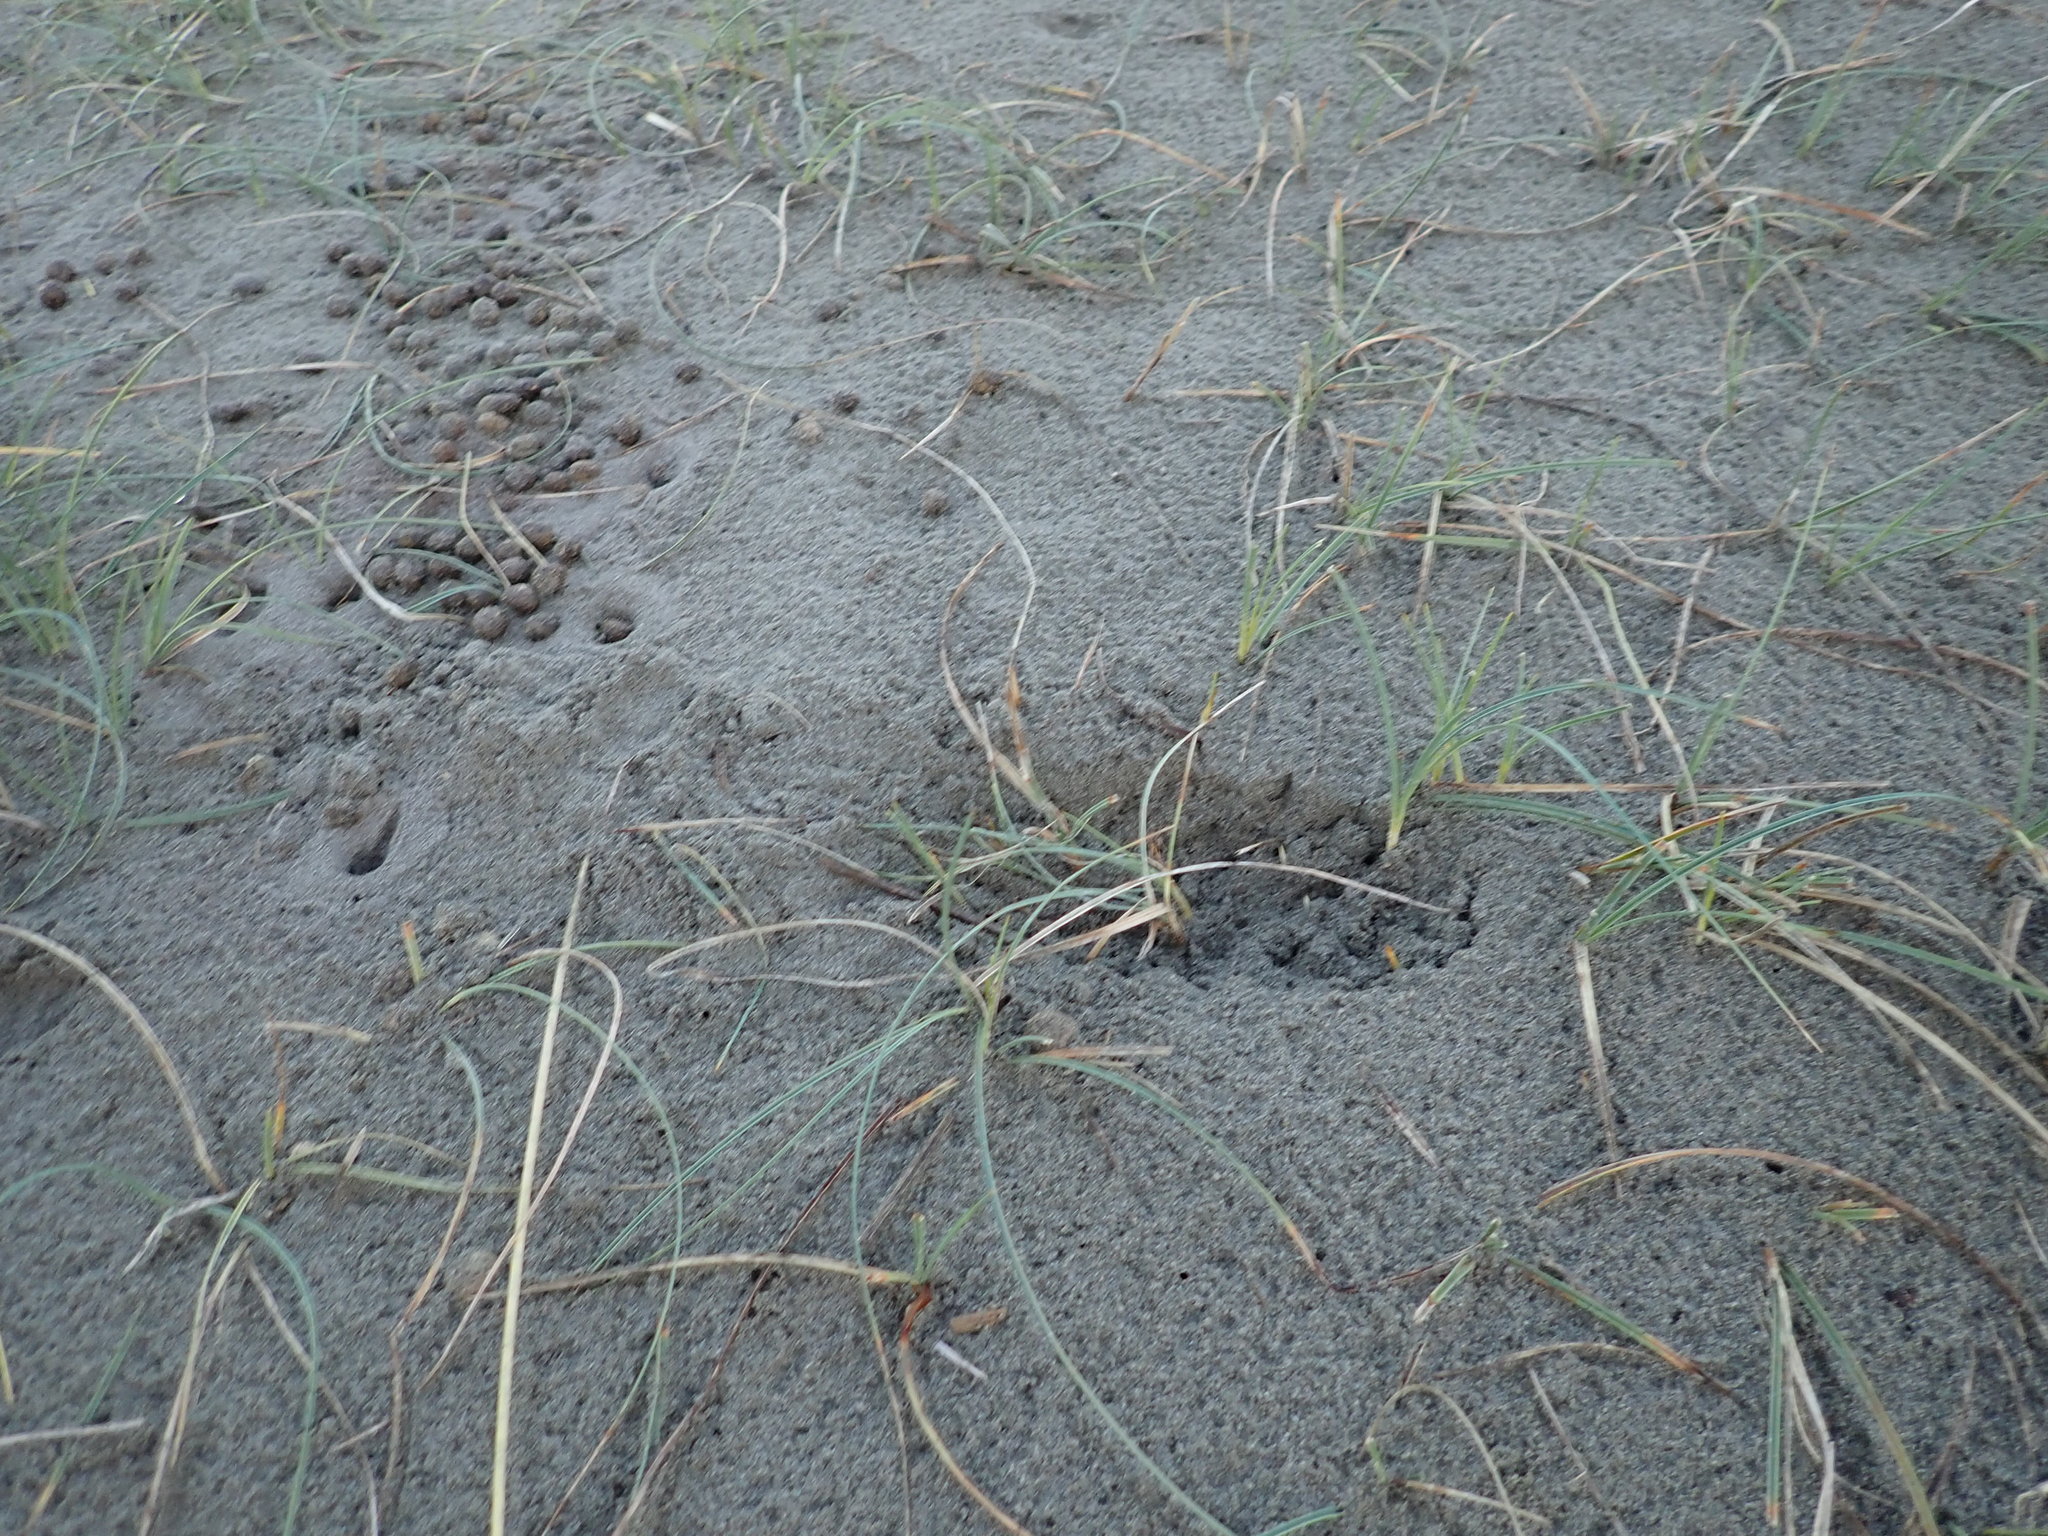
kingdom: Plantae
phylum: Tracheophyta
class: Liliopsida
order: Poales
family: Cyperaceae
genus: Carex
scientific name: Carex pumila
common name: Dwarf sedge
